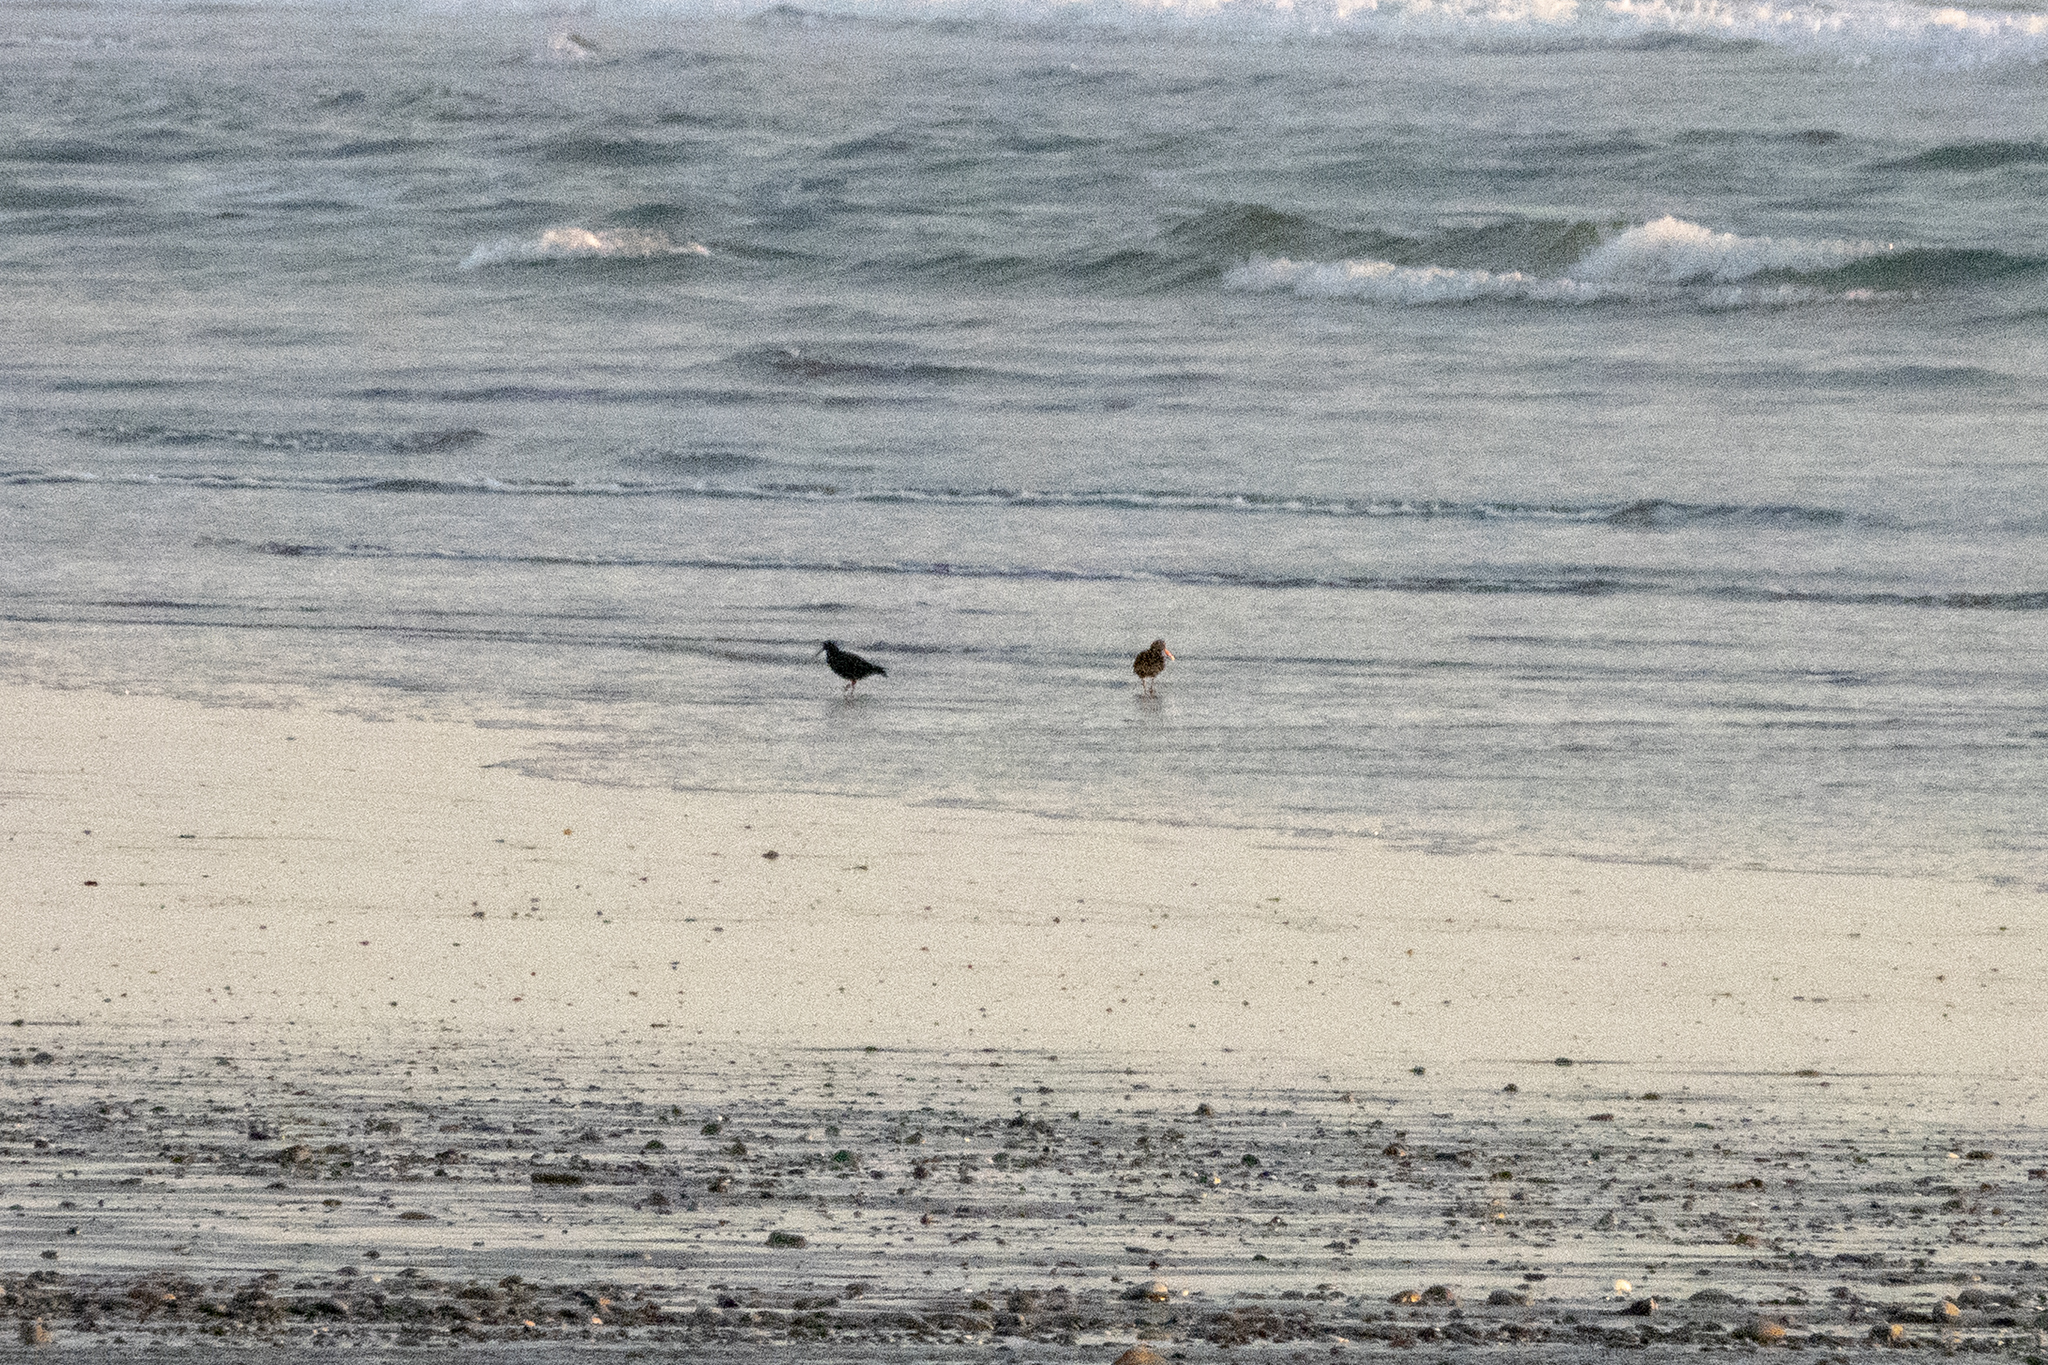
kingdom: Animalia
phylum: Chordata
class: Aves
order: Charadriiformes
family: Haematopodidae
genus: Haematopus
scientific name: Haematopus unicolor
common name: Variable oystercatcher
